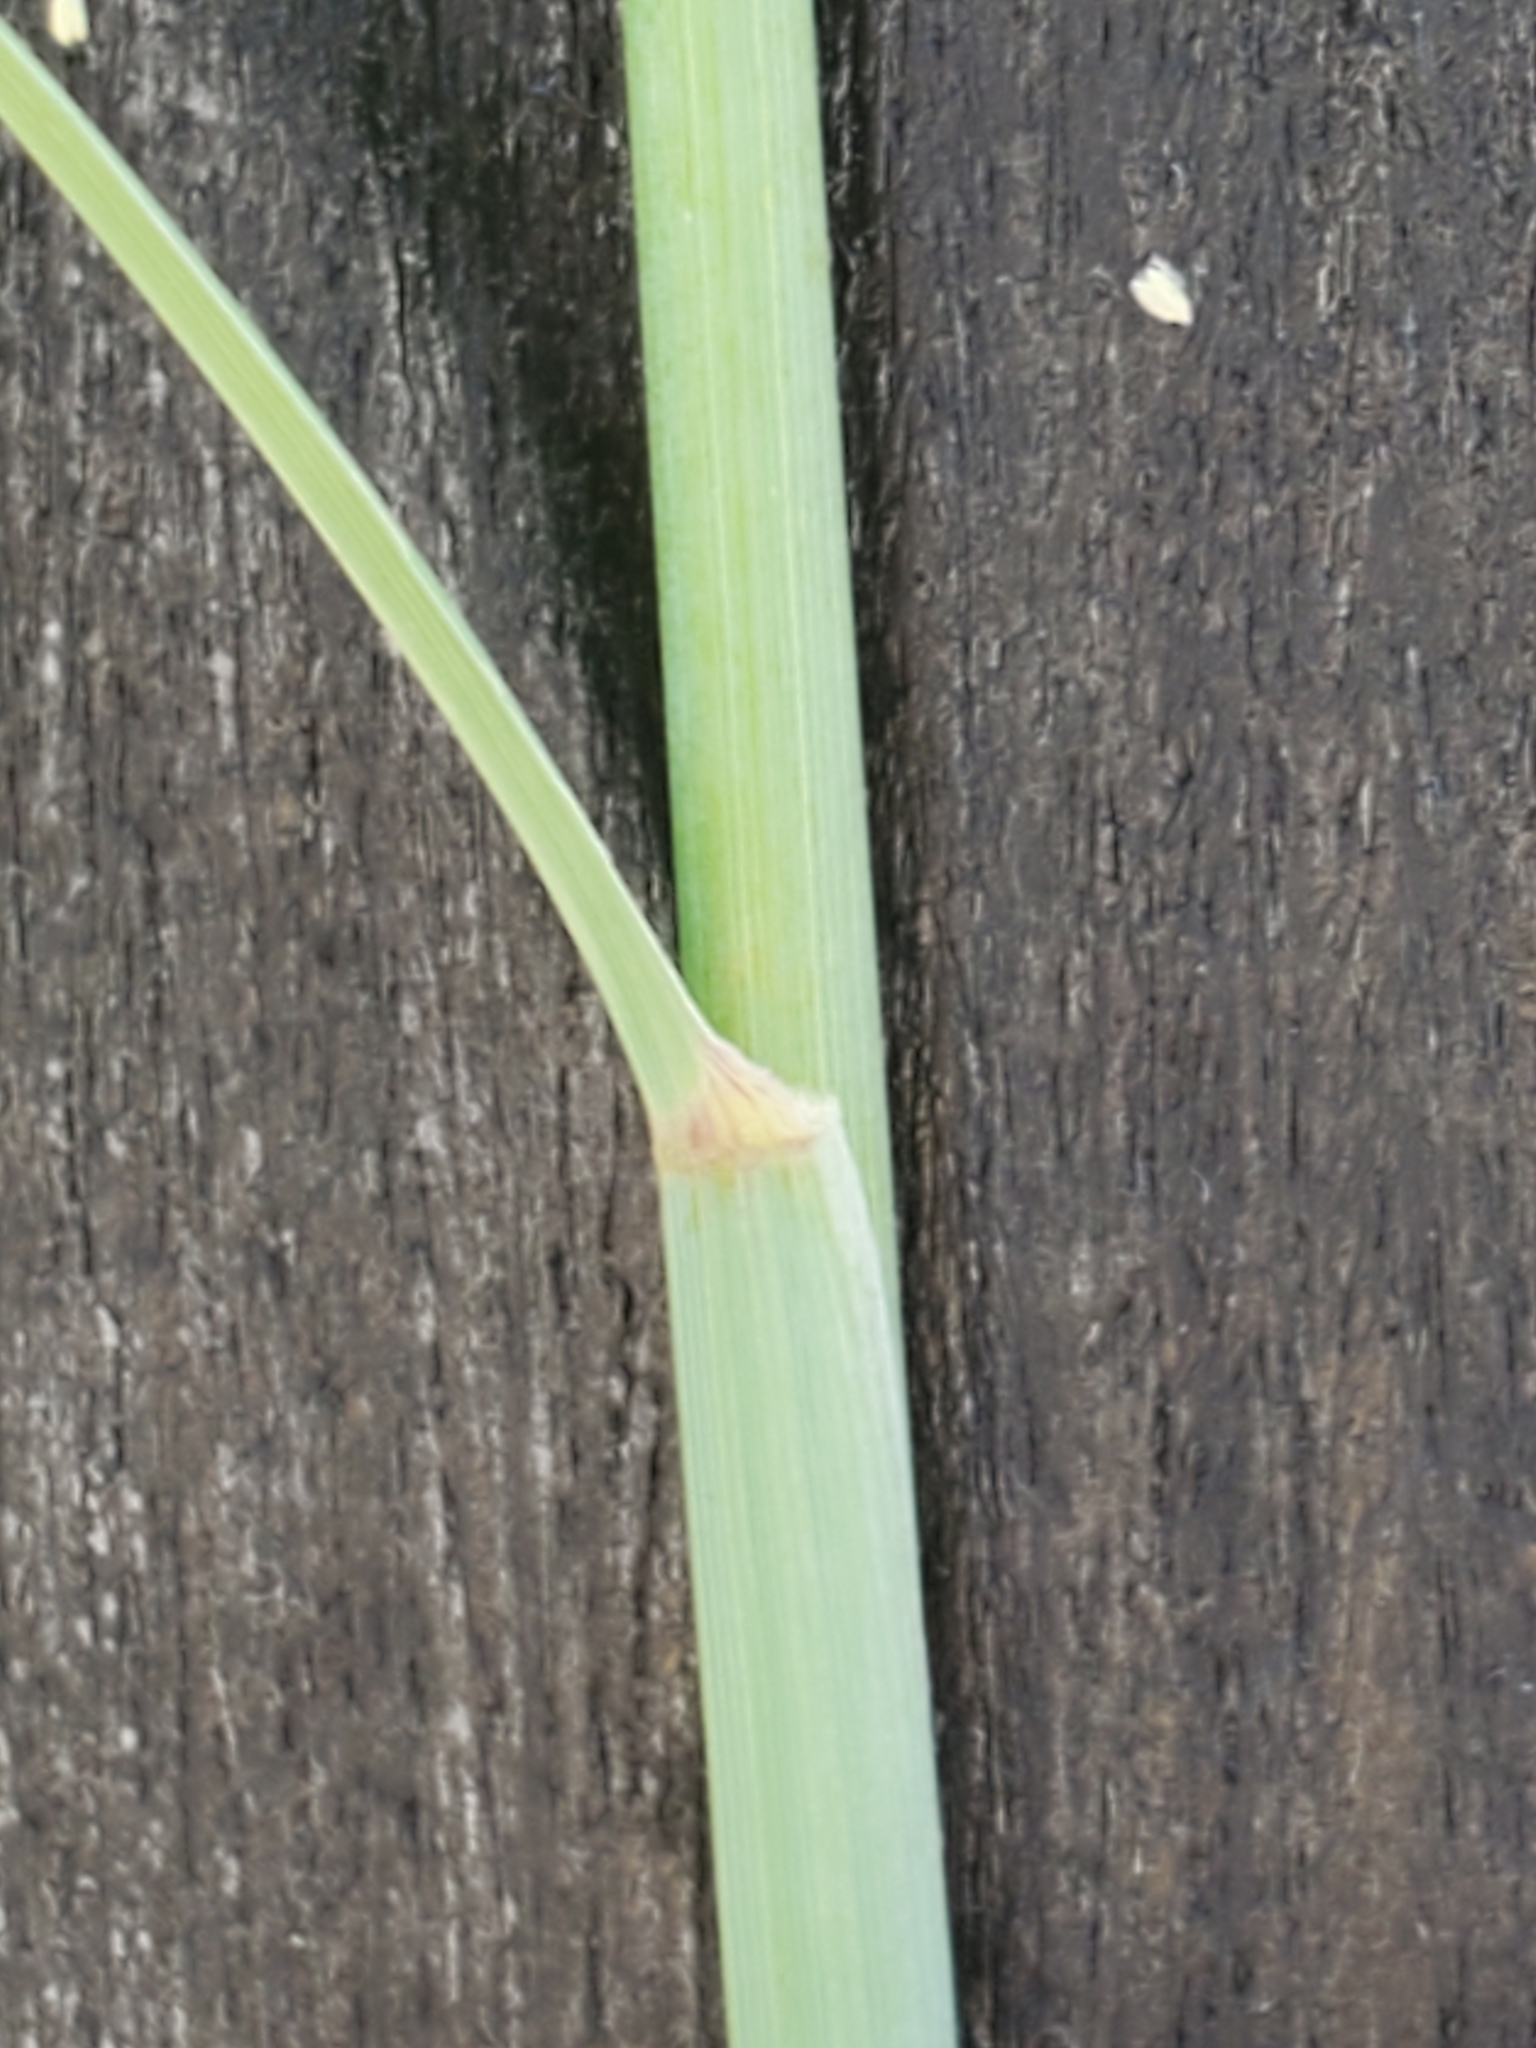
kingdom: Plantae
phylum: Tracheophyta
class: Liliopsida
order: Poales
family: Poaceae
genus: Disakisperma
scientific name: Disakisperma dubium
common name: Green sprangletop
